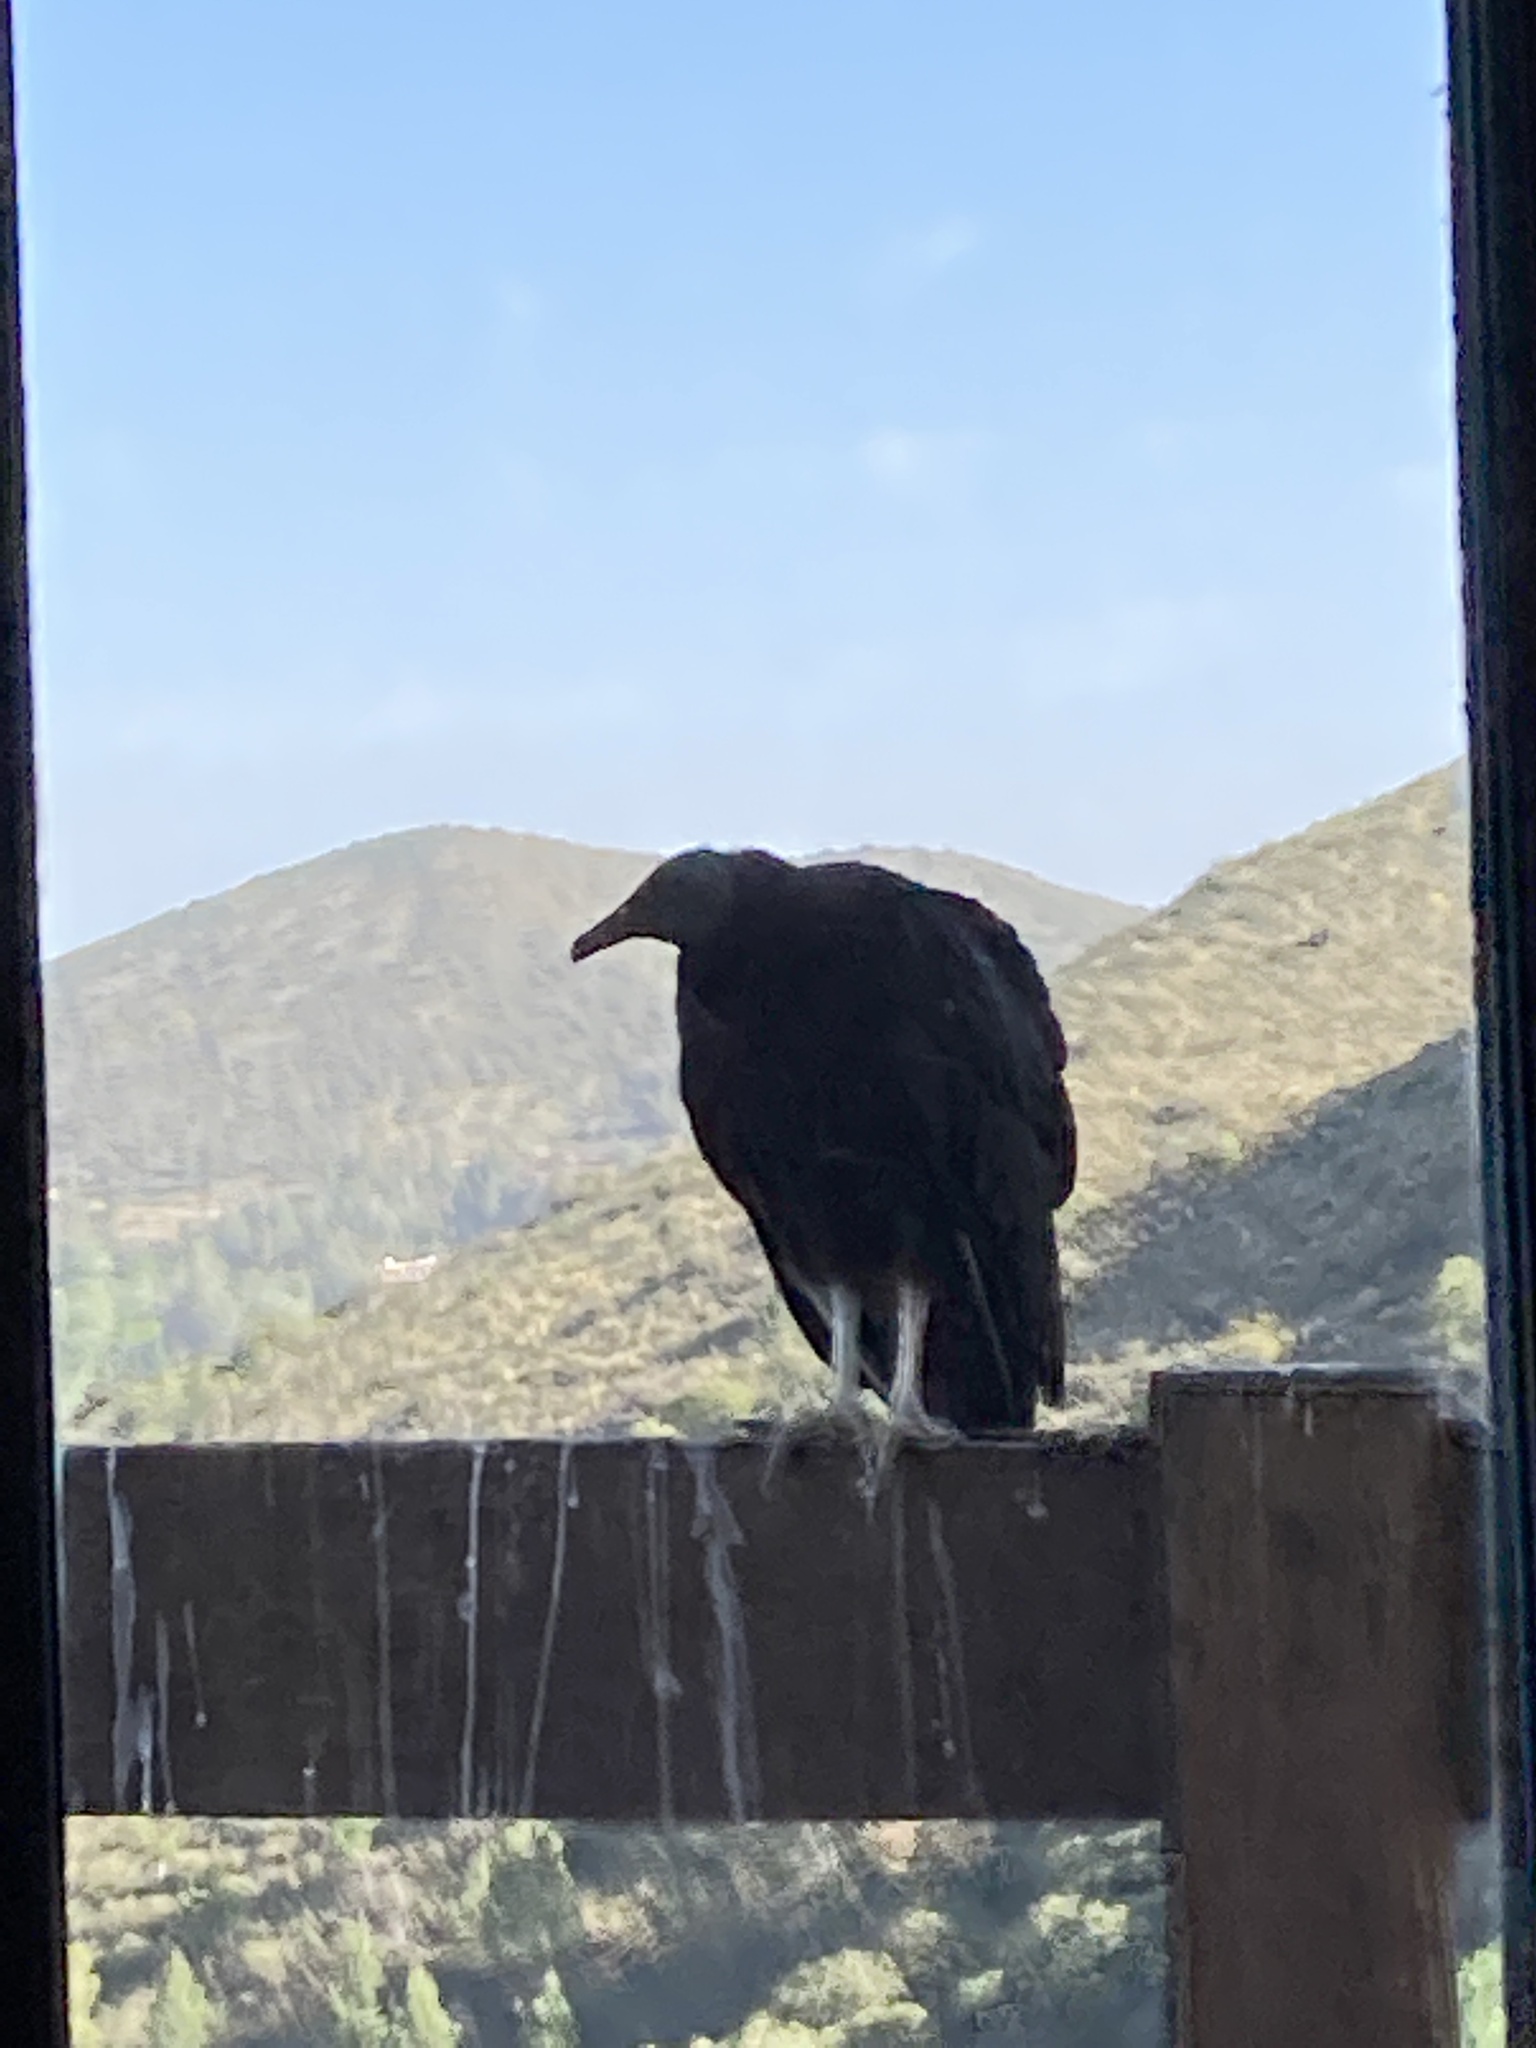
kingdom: Animalia
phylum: Chordata
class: Aves
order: Accipitriformes
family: Cathartidae
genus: Coragyps
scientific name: Coragyps atratus
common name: Black vulture
